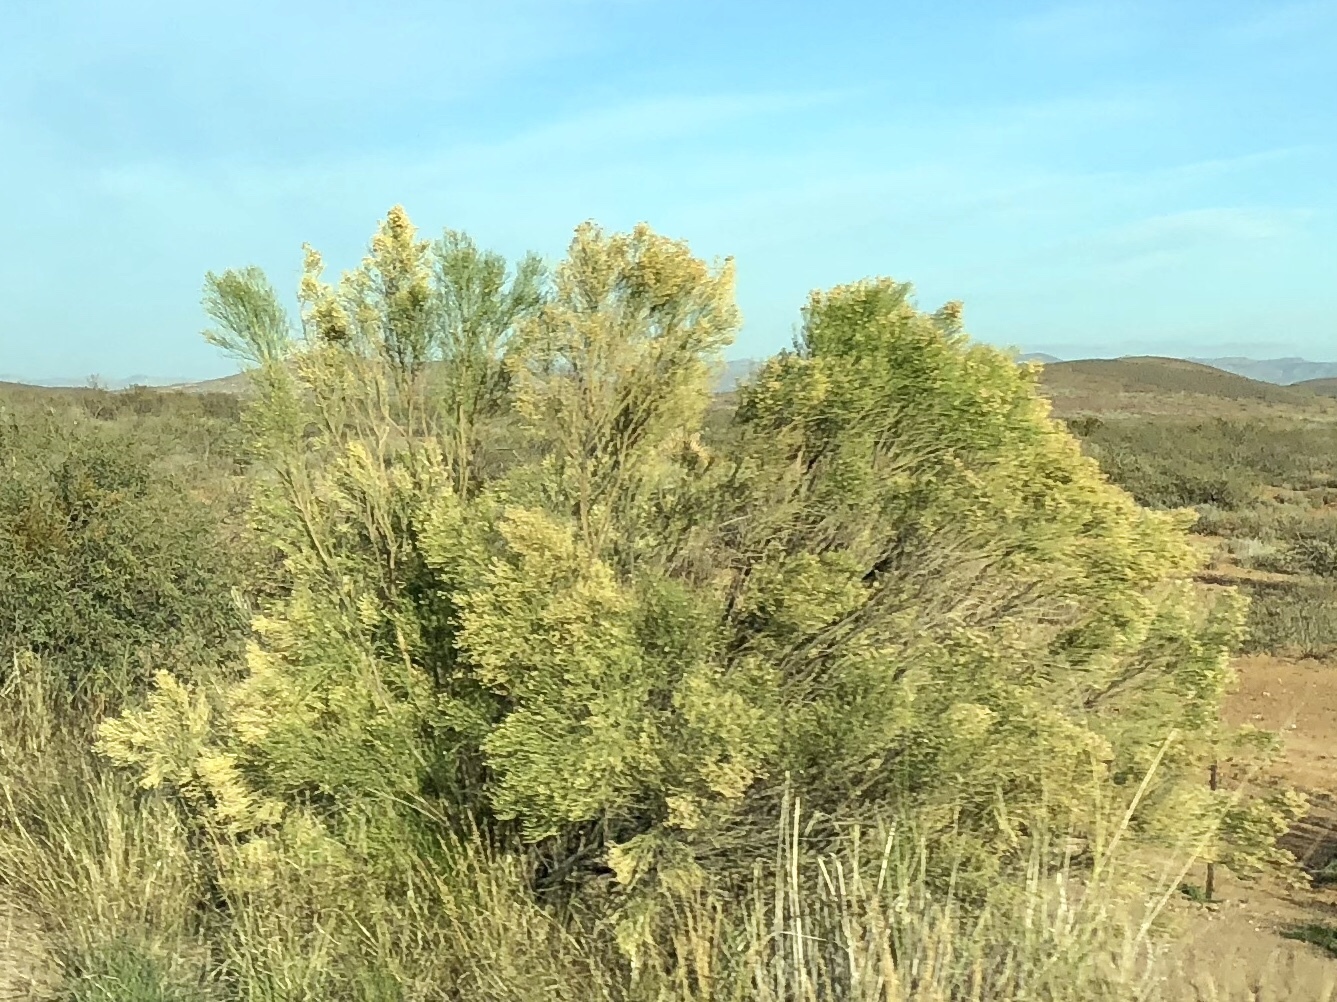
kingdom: Plantae
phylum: Tracheophyta
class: Magnoliopsida
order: Asterales
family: Asteraceae
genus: Baccharis
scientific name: Baccharis sarothroides
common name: Desert-broom
